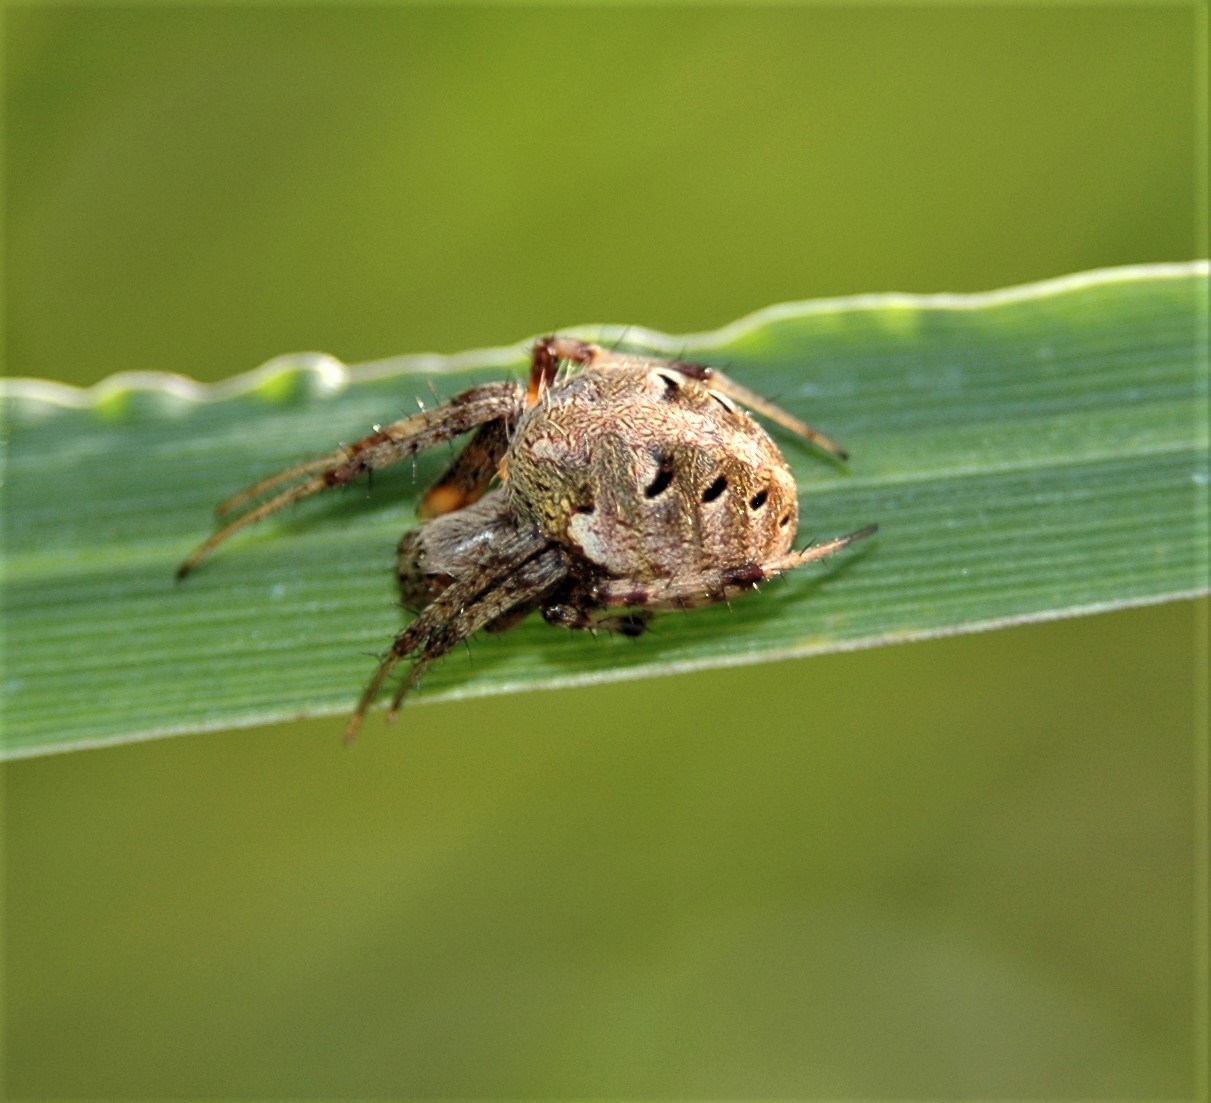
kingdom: Animalia
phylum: Arthropoda
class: Arachnida
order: Araneae
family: Araneidae
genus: Neoscona
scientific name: Neoscona arabesca
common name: Orb weavers
